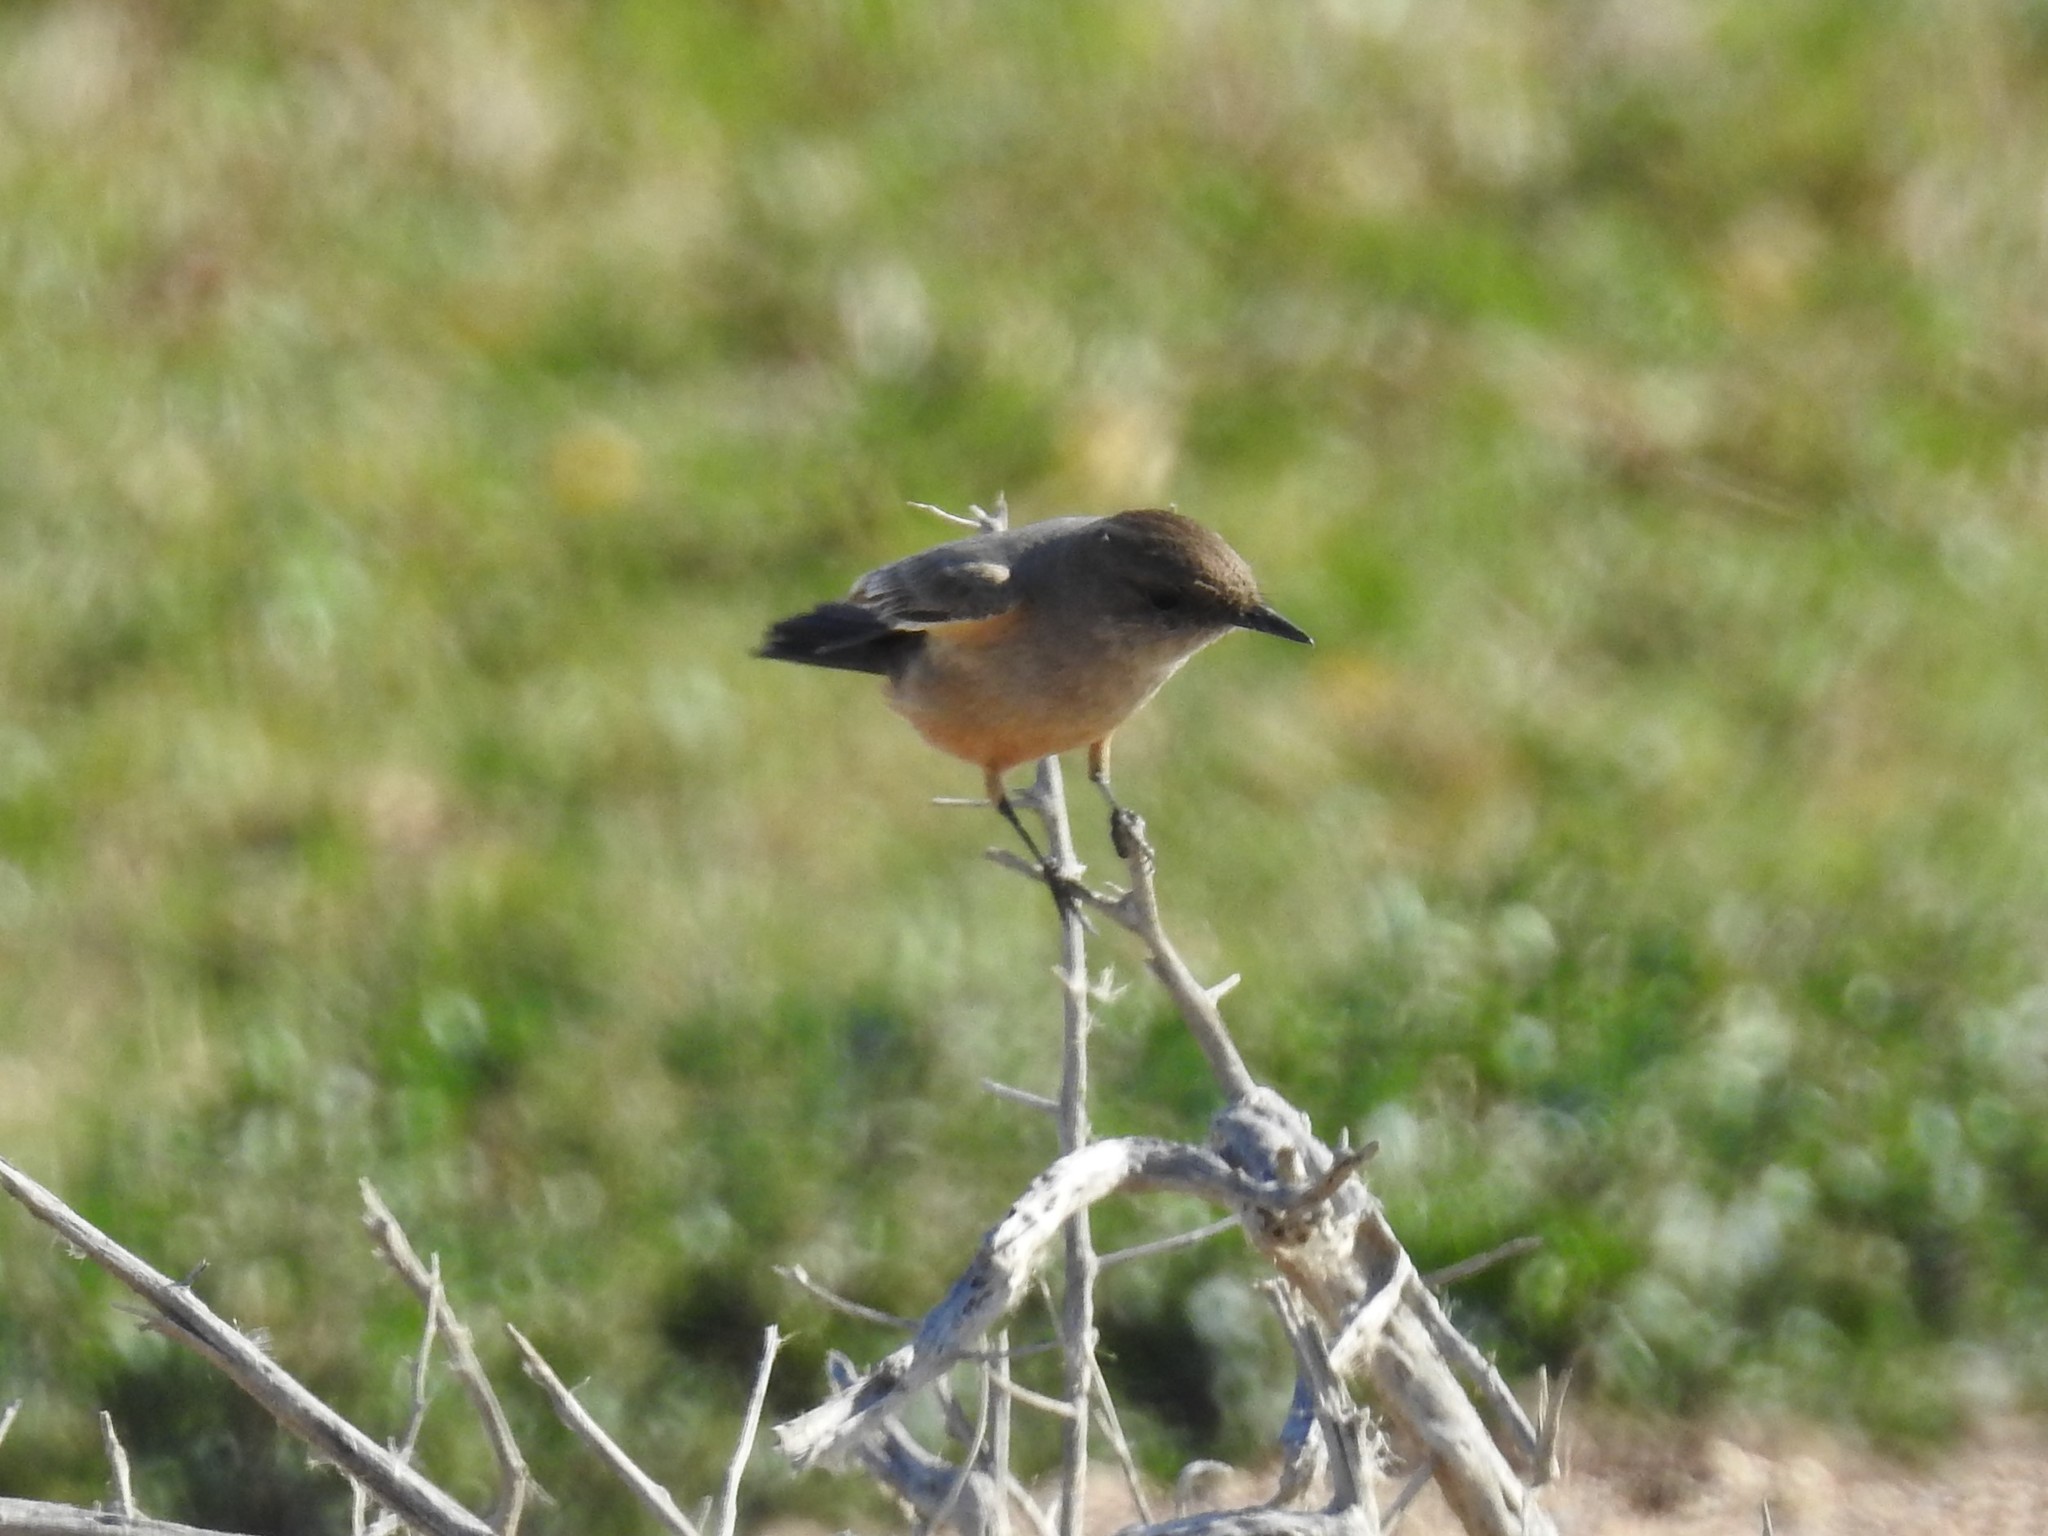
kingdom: Animalia
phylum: Chordata
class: Aves
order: Passeriformes
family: Tyrannidae
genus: Sayornis
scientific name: Sayornis saya
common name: Say's phoebe
